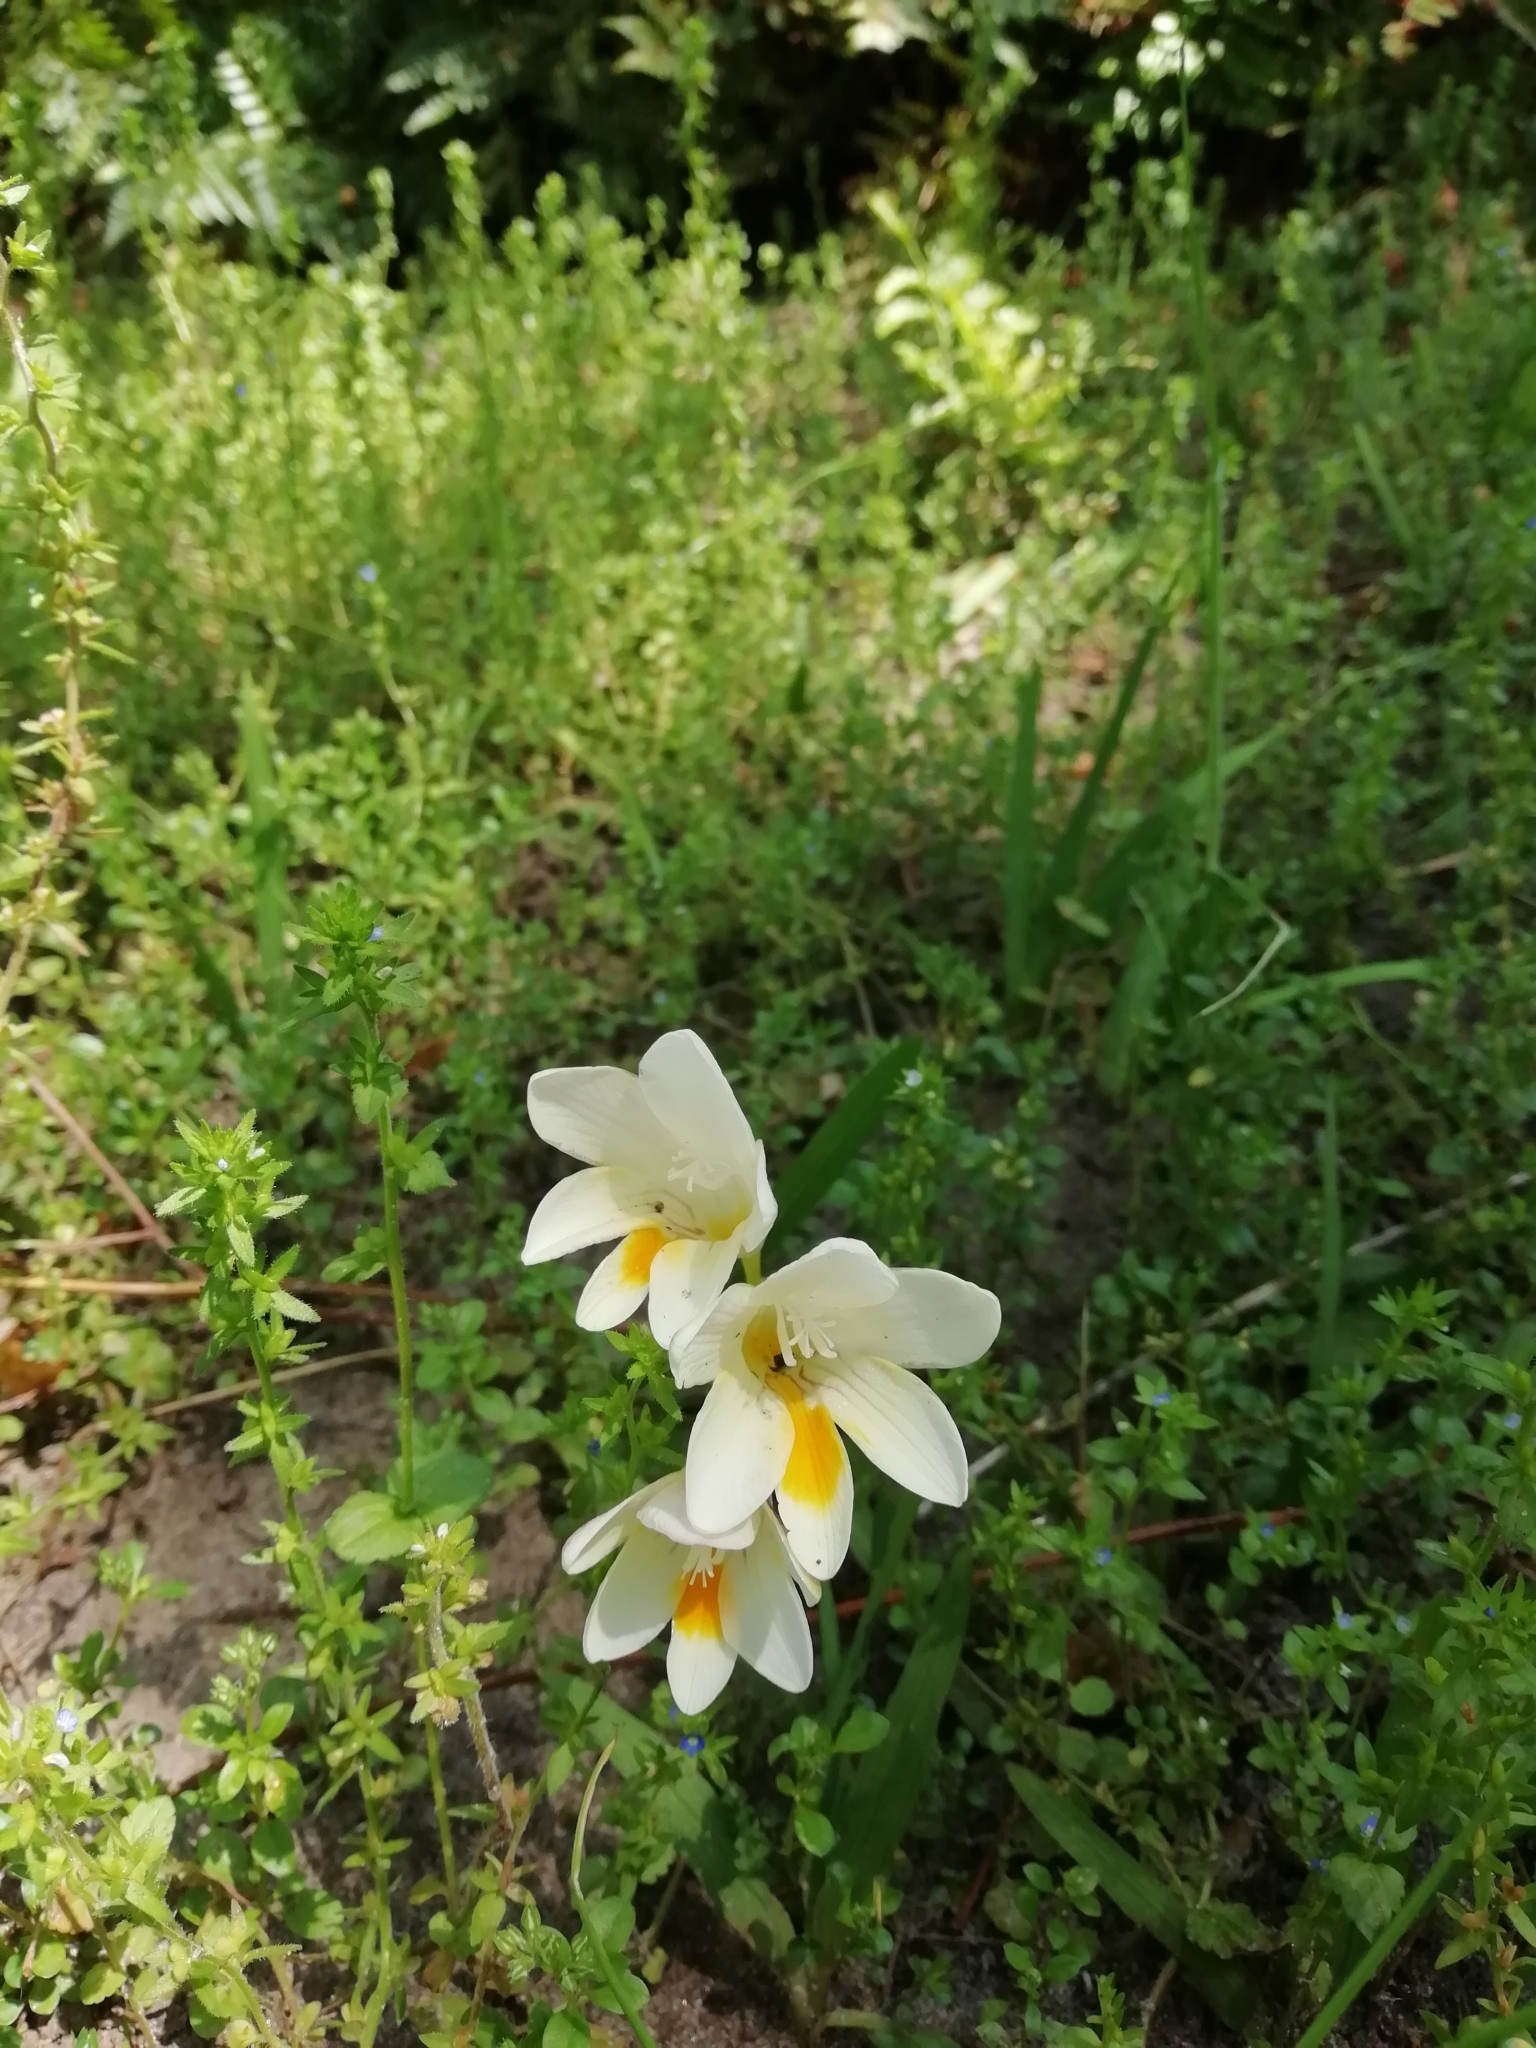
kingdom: Plantae
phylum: Tracheophyta
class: Liliopsida
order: Asparagales
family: Iridaceae
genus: Freesia
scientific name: Freesia leichtlinii
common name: Freesia
